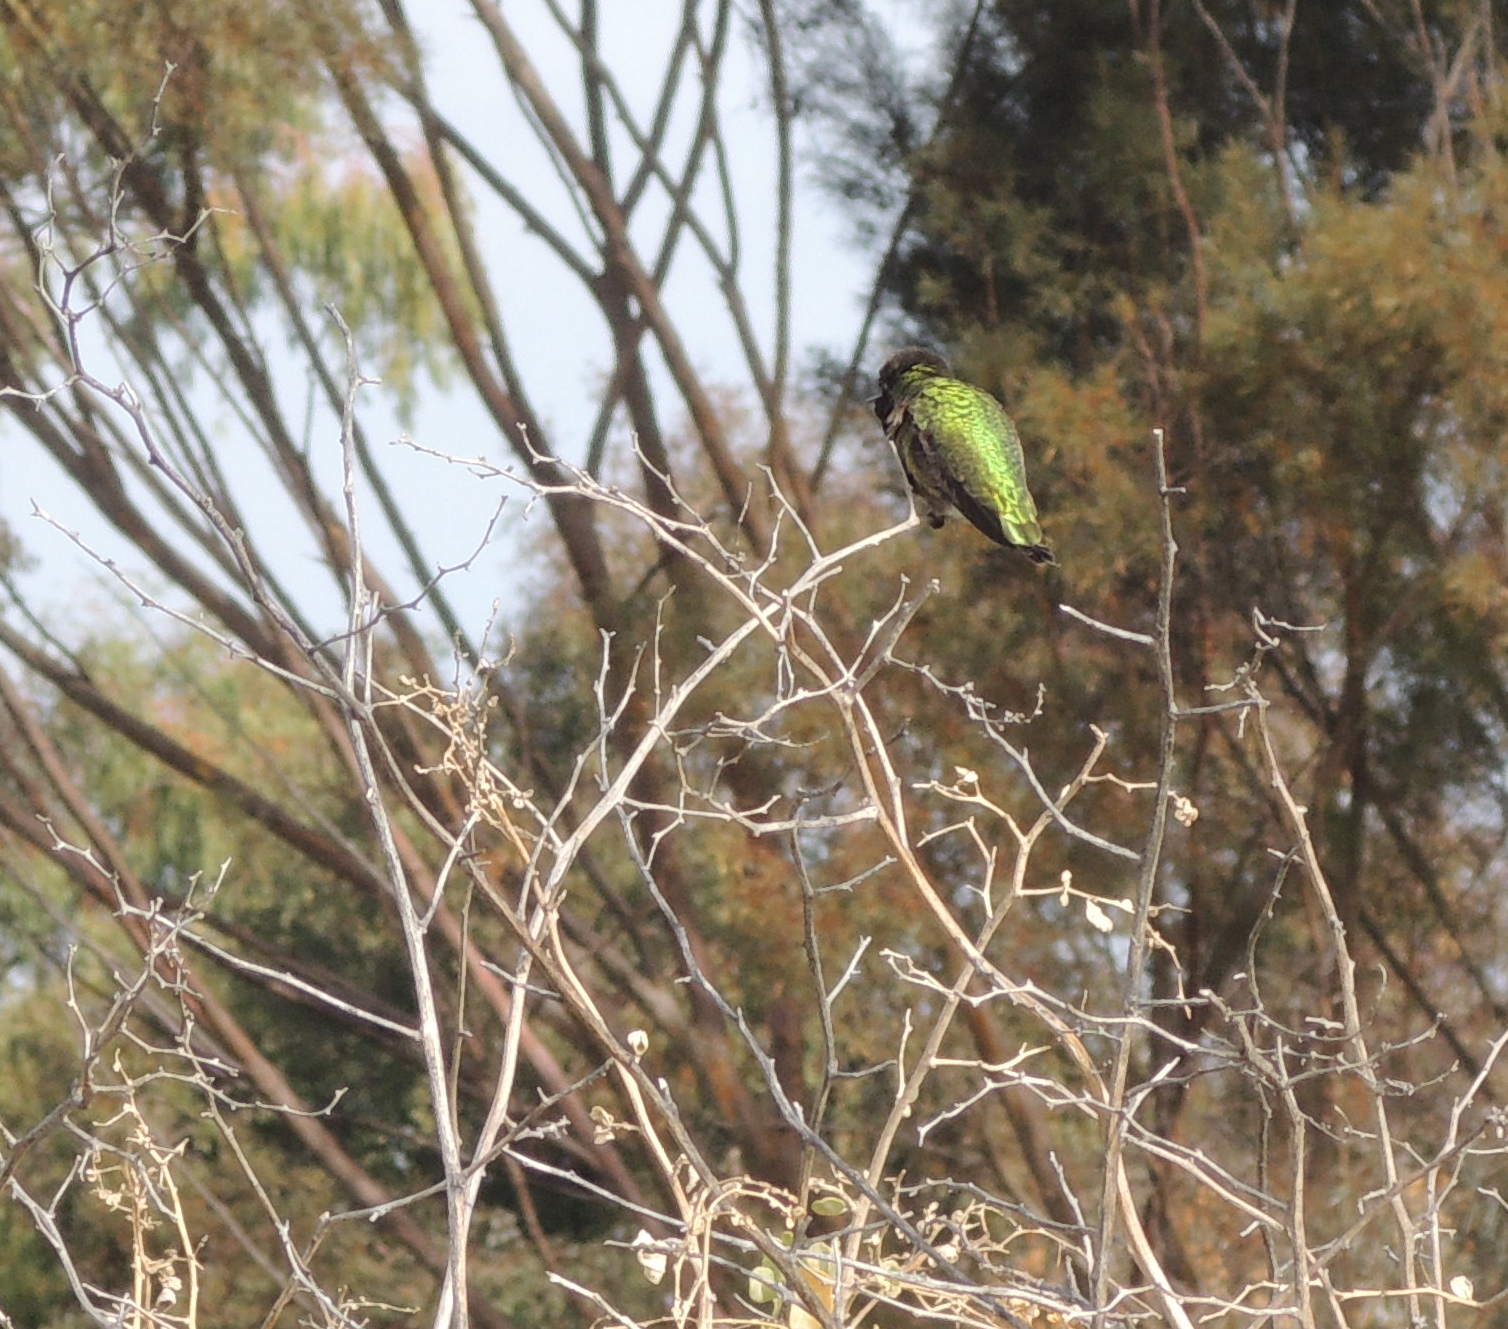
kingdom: Animalia
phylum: Chordata
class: Aves
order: Apodiformes
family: Trochilidae
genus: Calypte
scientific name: Calypte anna
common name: Anna's hummingbird
